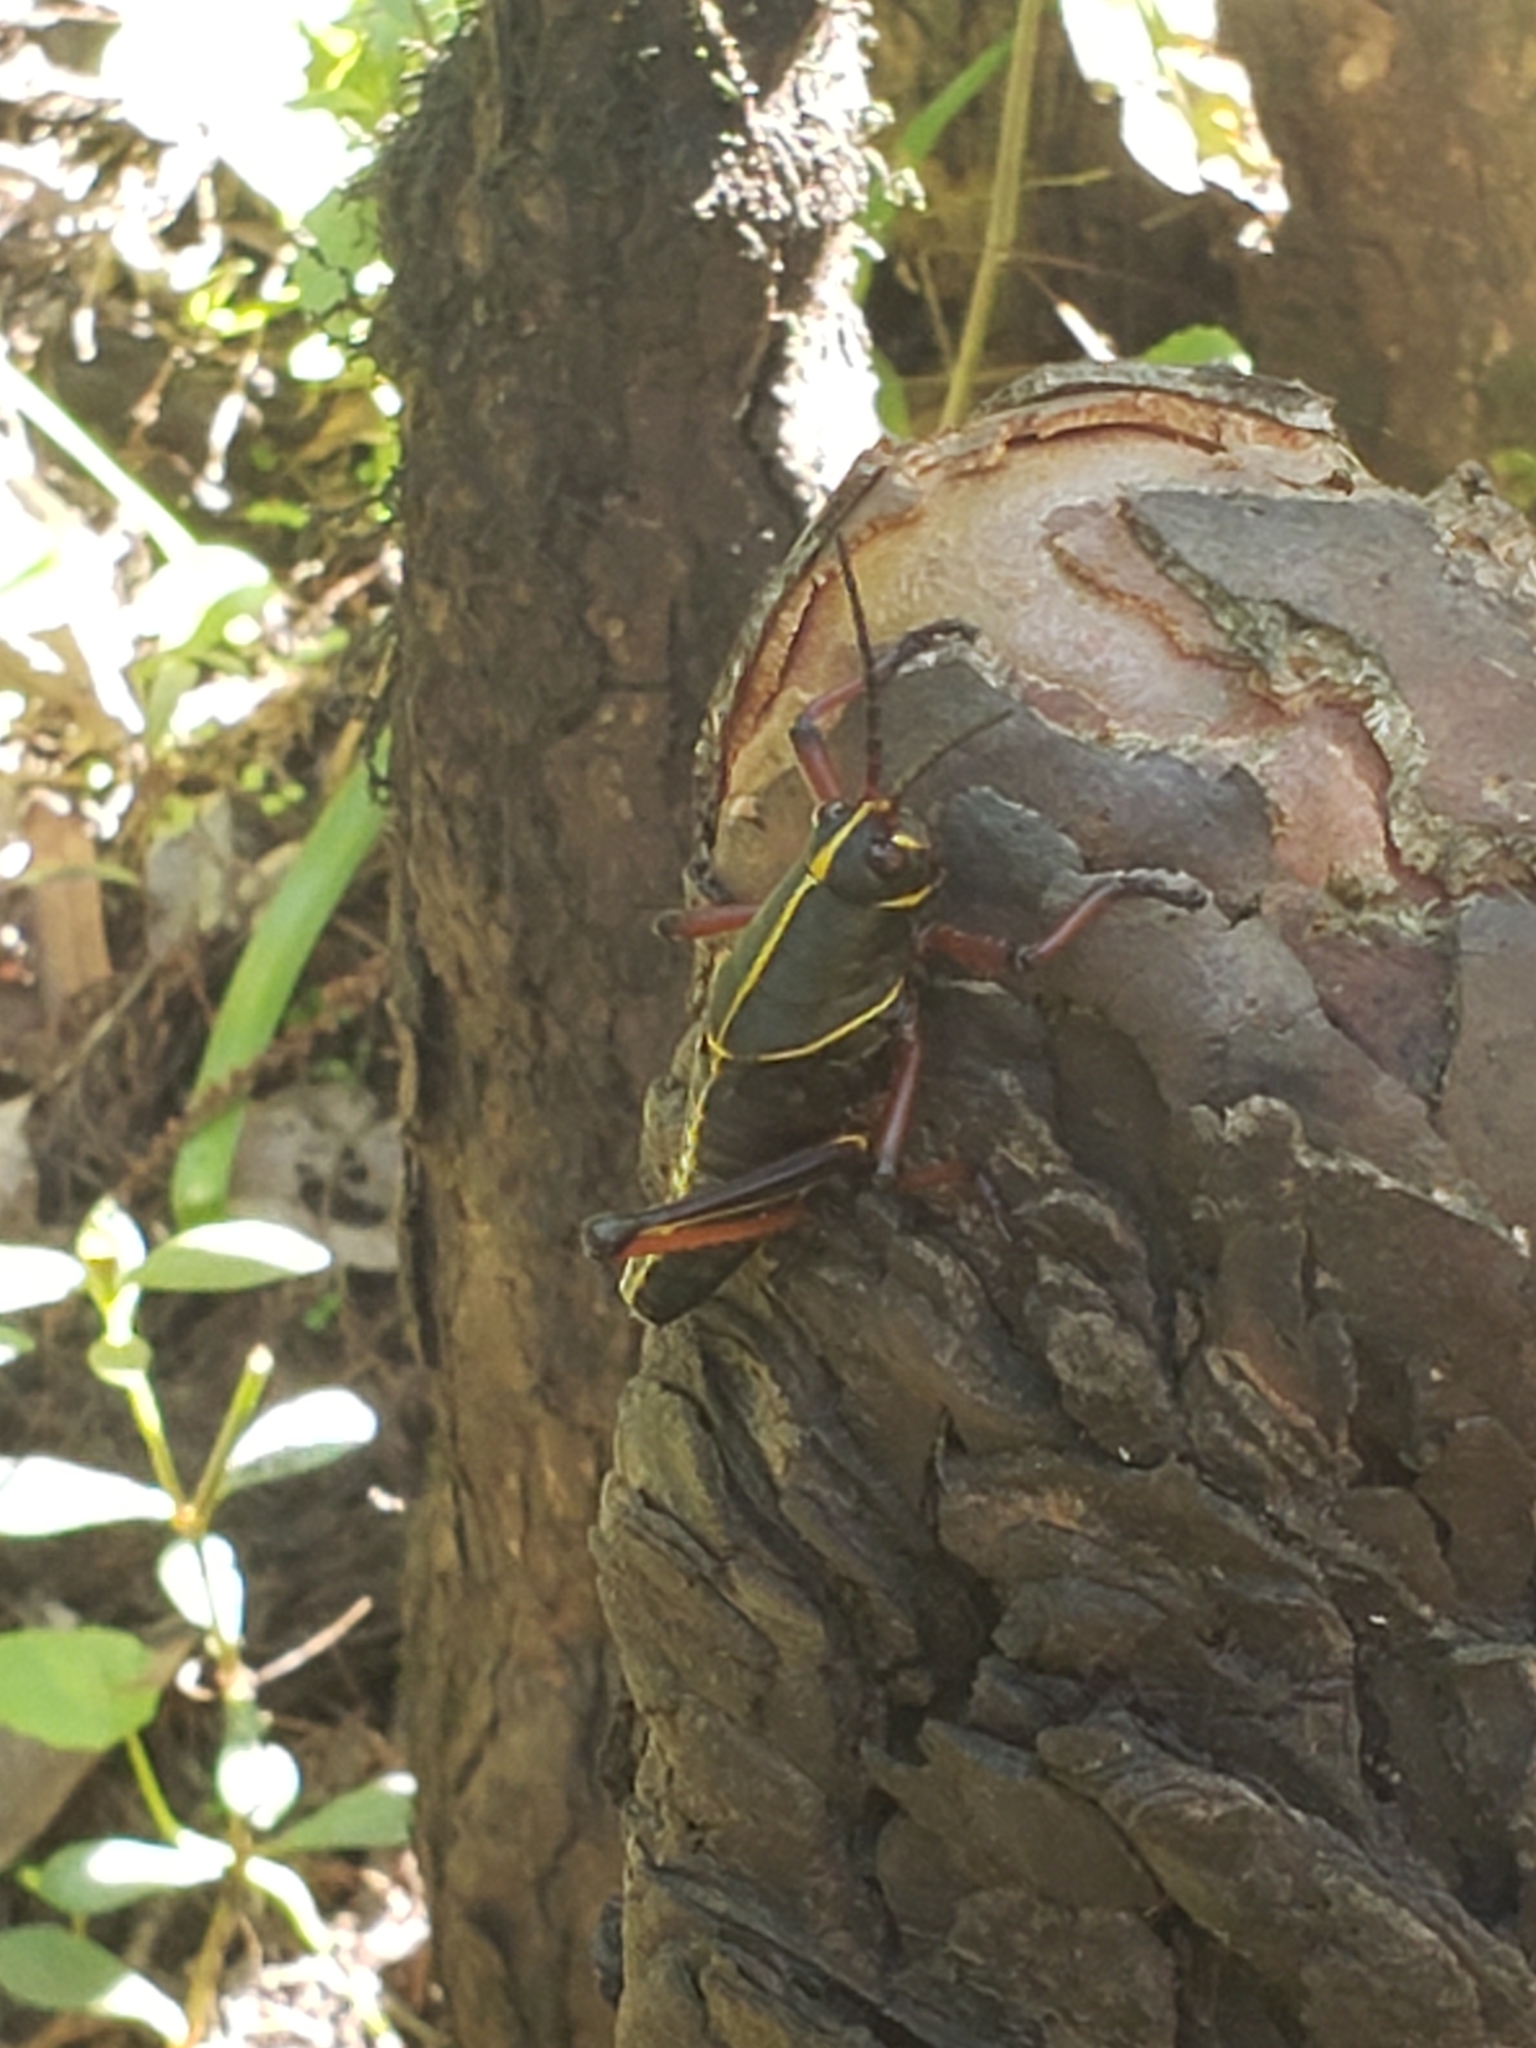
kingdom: Animalia
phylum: Arthropoda
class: Insecta
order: Orthoptera
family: Romaleidae
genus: Romalea
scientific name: Romalea microptera
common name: Eastern lubber grasshopper
